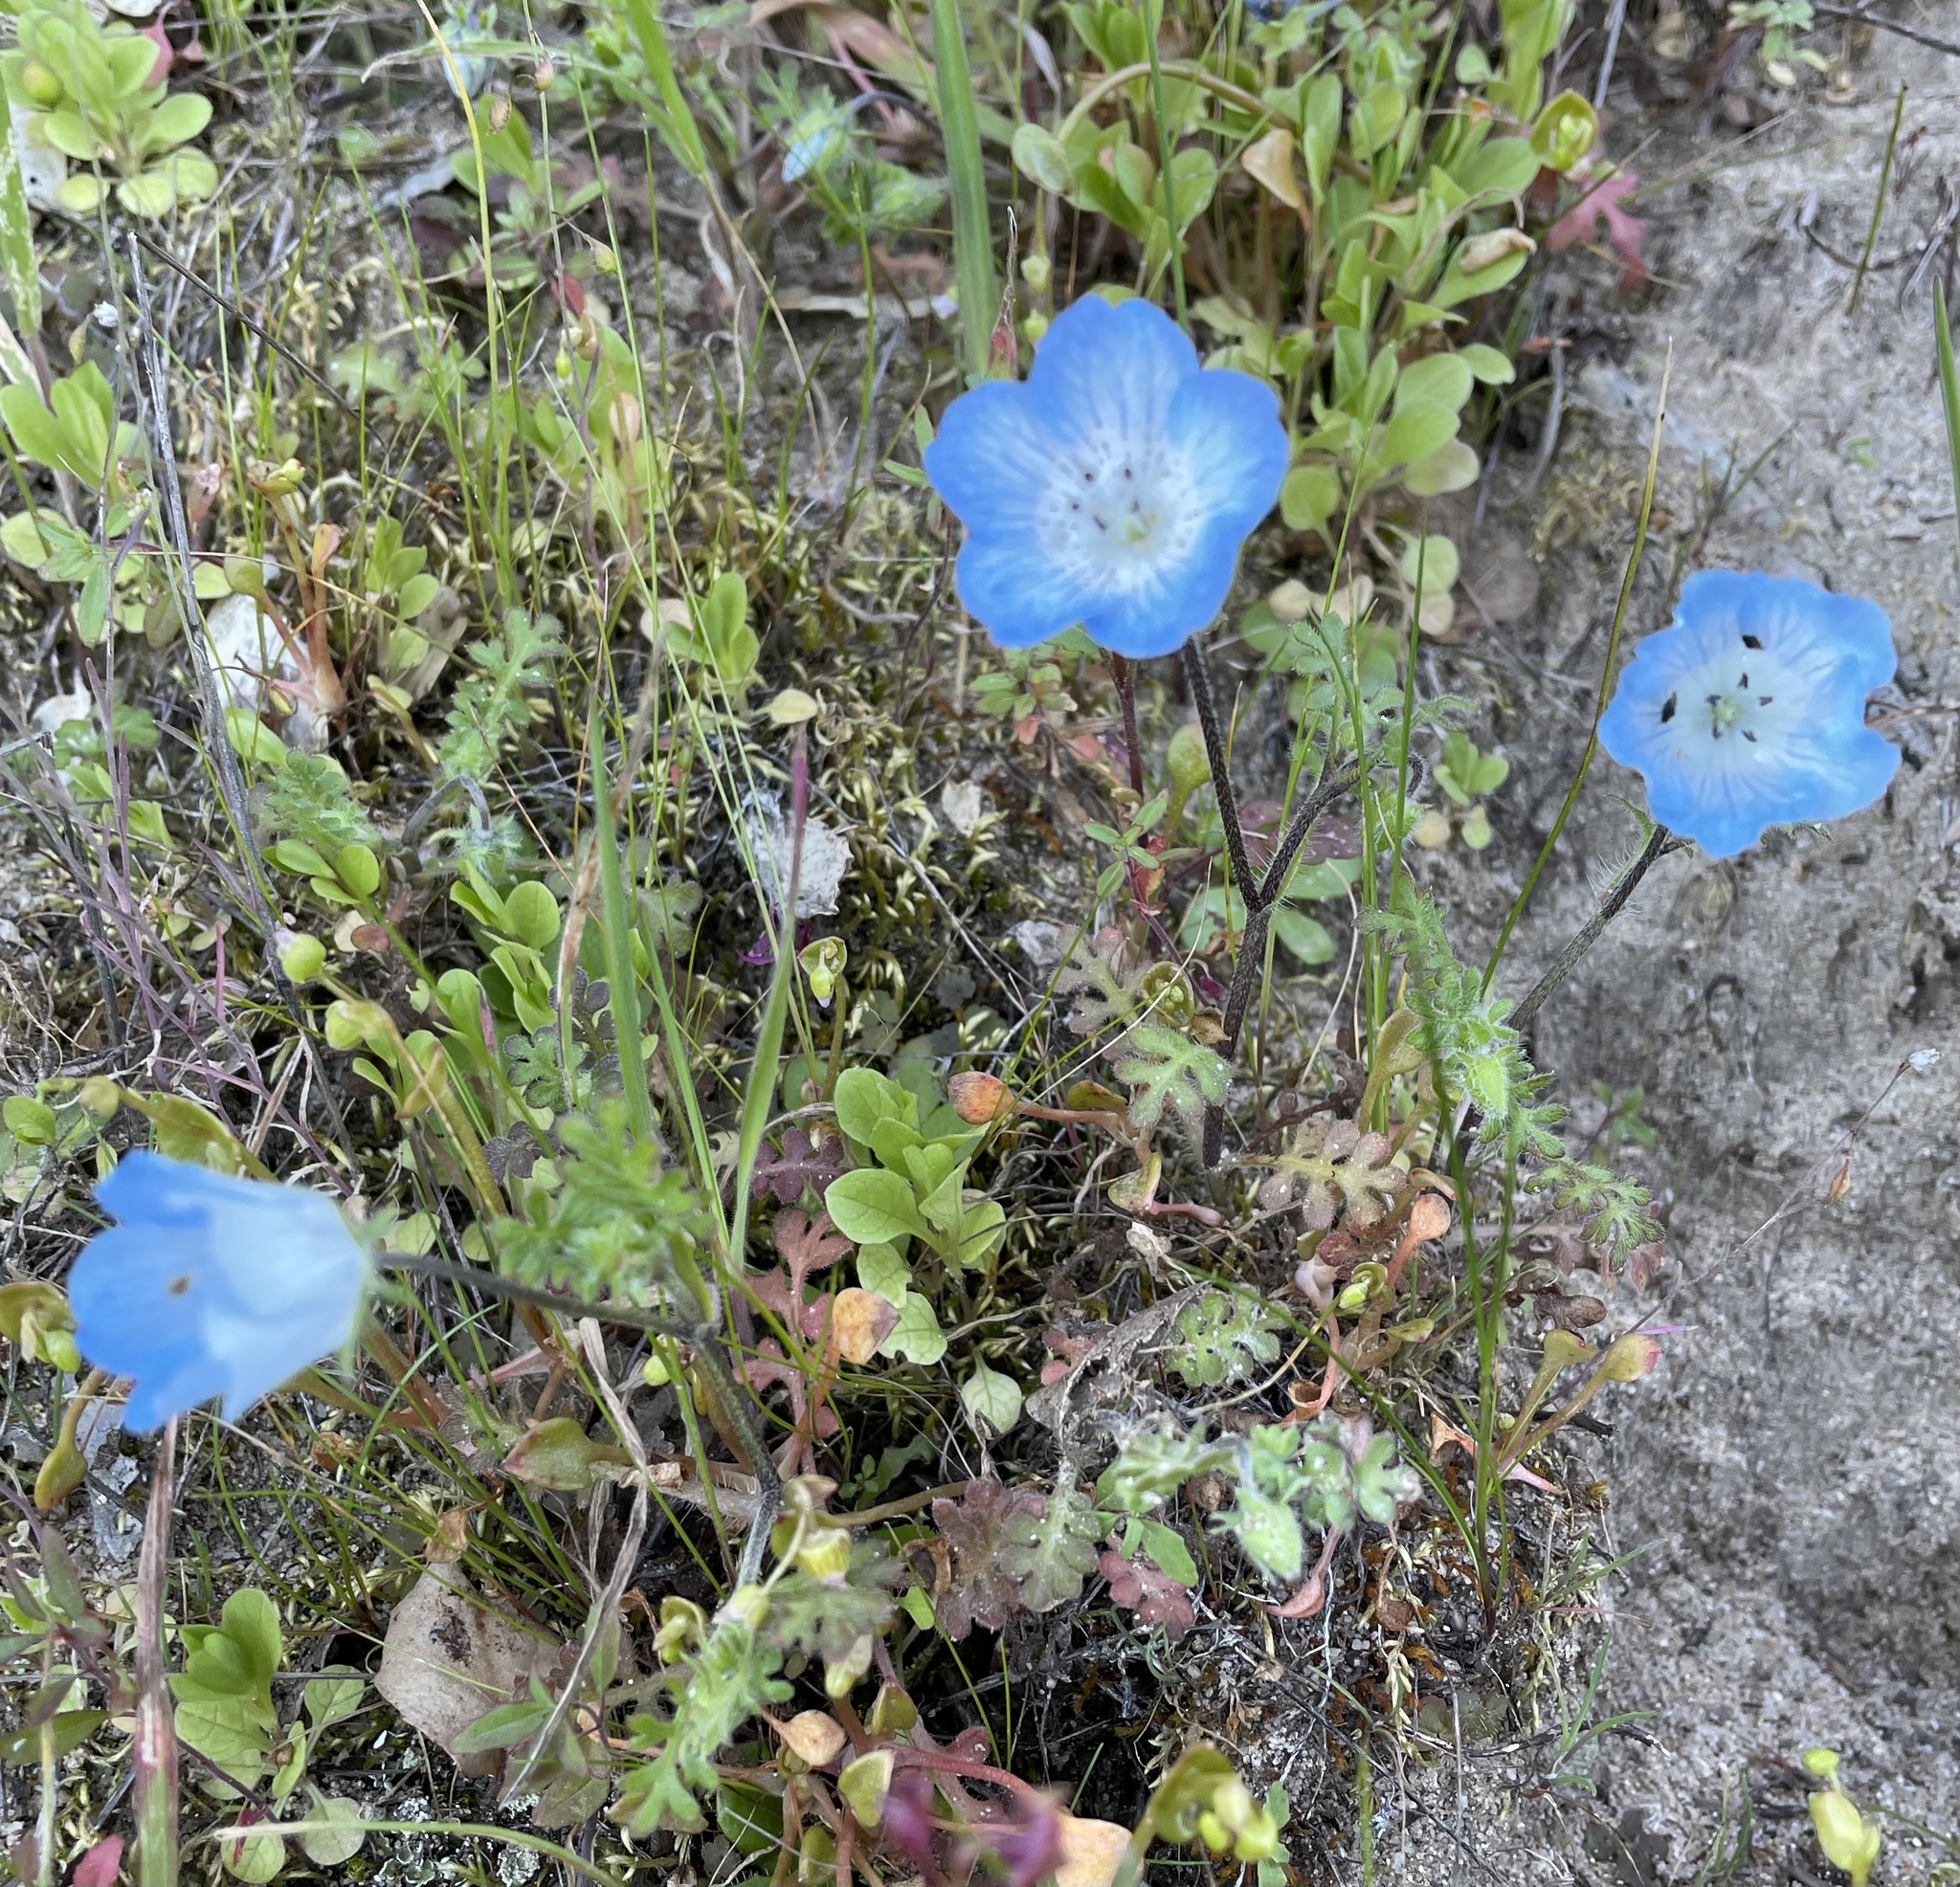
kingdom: Plantae
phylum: Tracheophyta
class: Magnoliopsida
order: Boraginales
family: Hydrophyllaceae
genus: Nemophila
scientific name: Nemophila menziesii
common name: Baby's-blue-eyes
